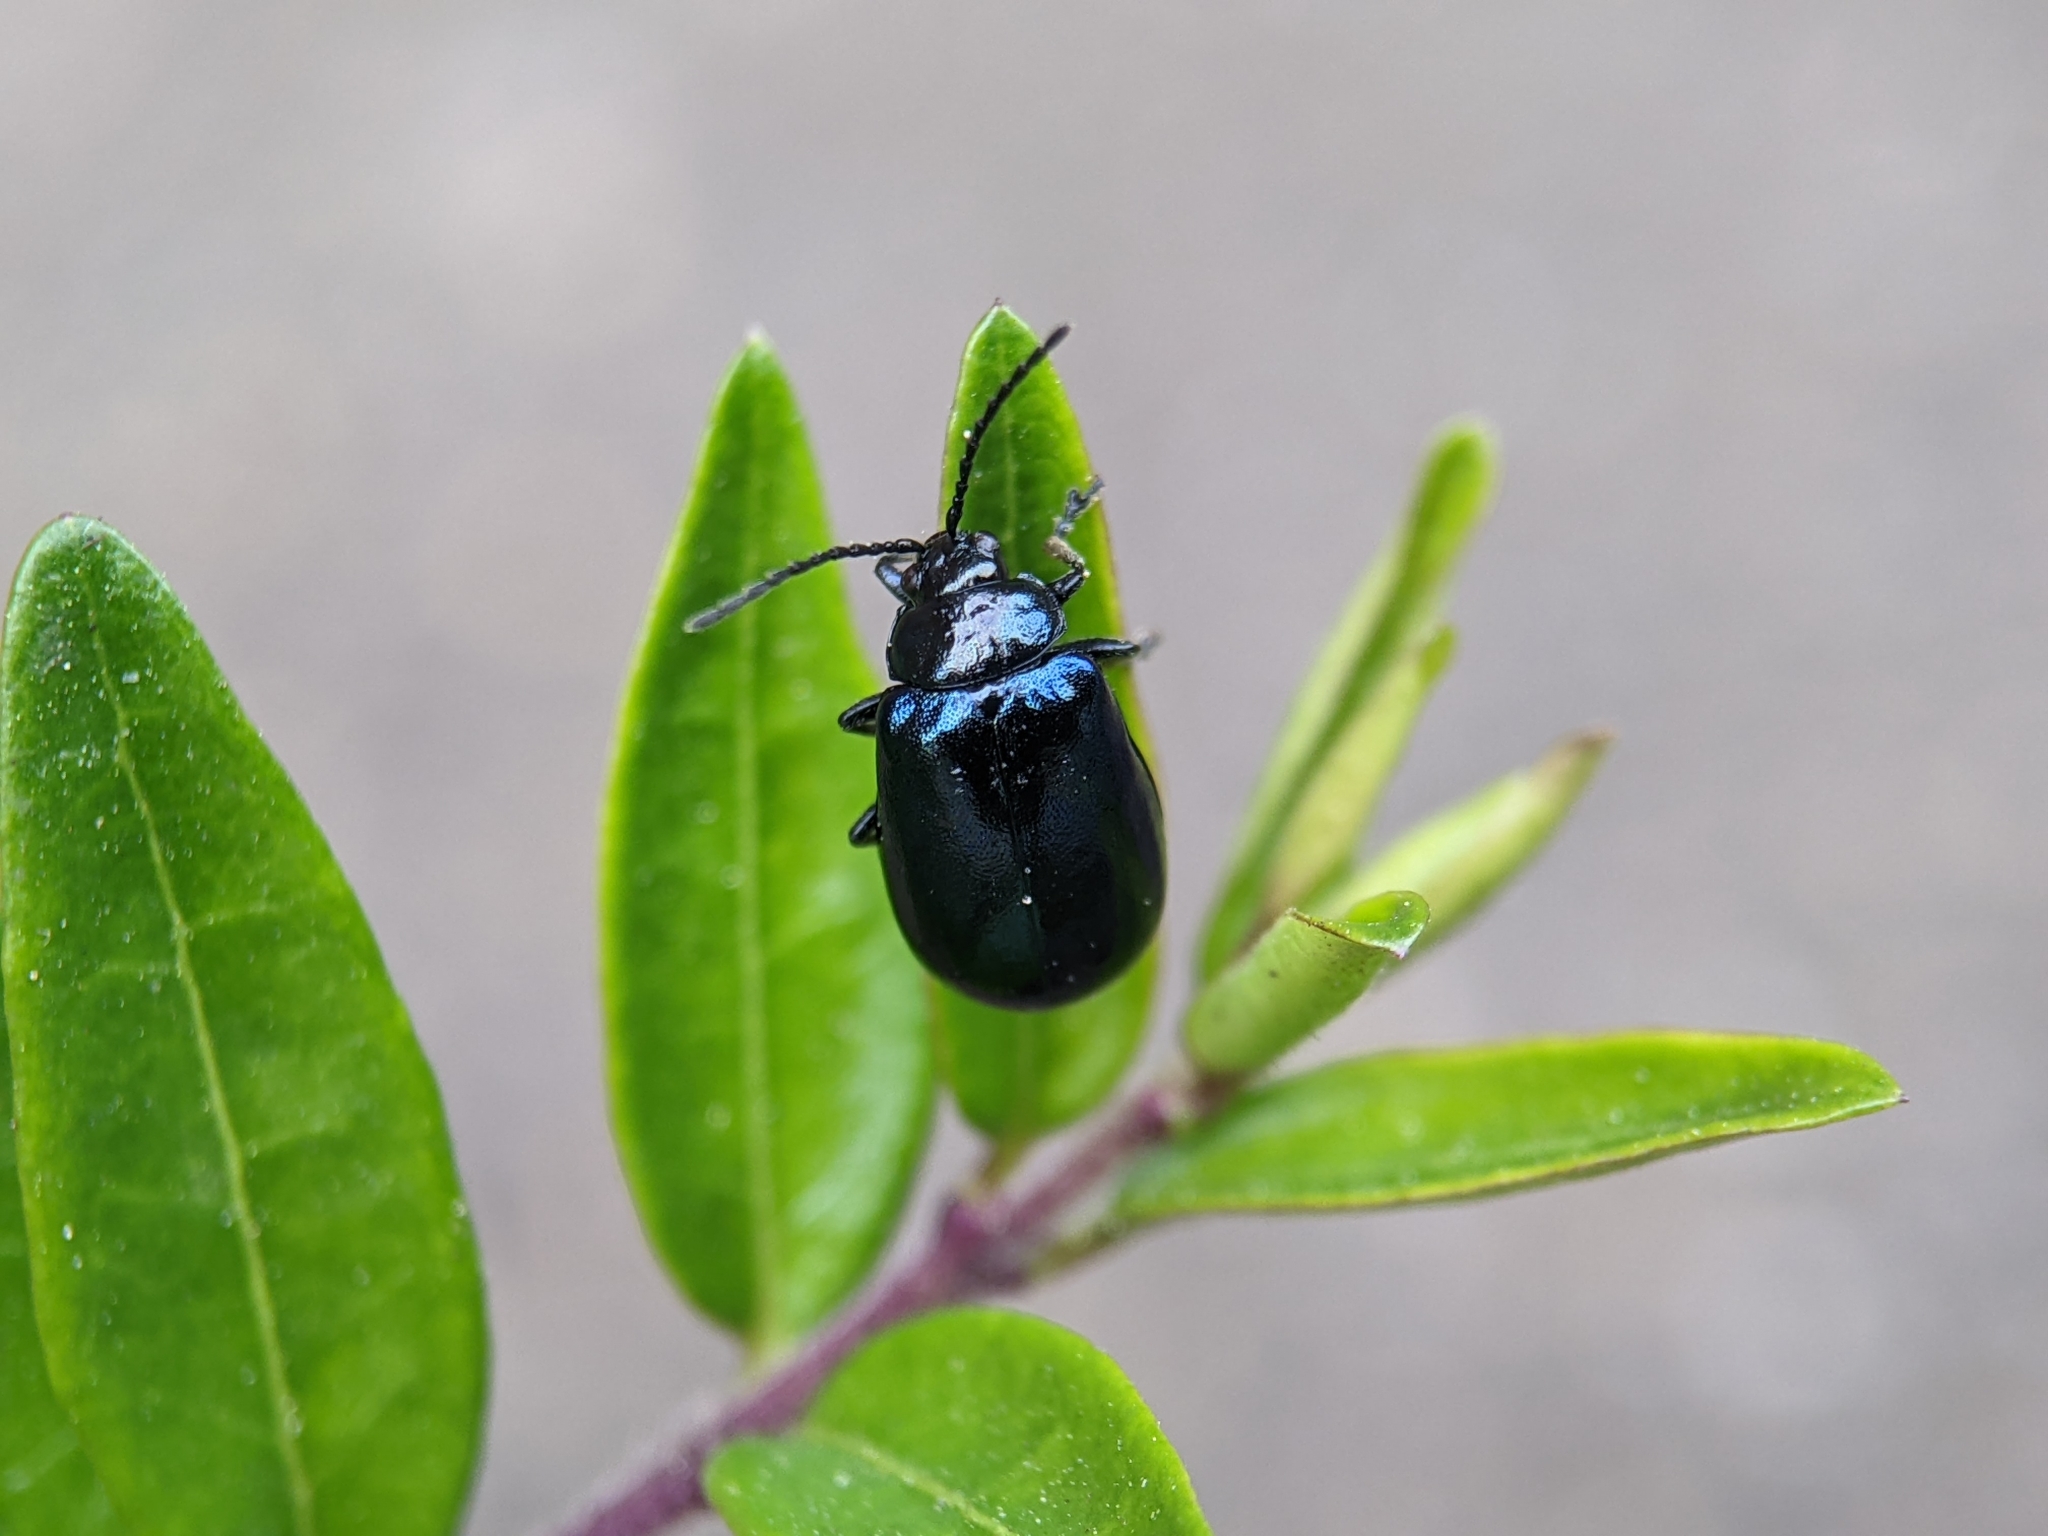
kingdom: Animalia
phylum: Arthropoda
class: Insecta
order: Coleoptera
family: Chrysomelidae
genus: Agelastica
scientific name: Agelastica alni
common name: Alder leaf beetle
